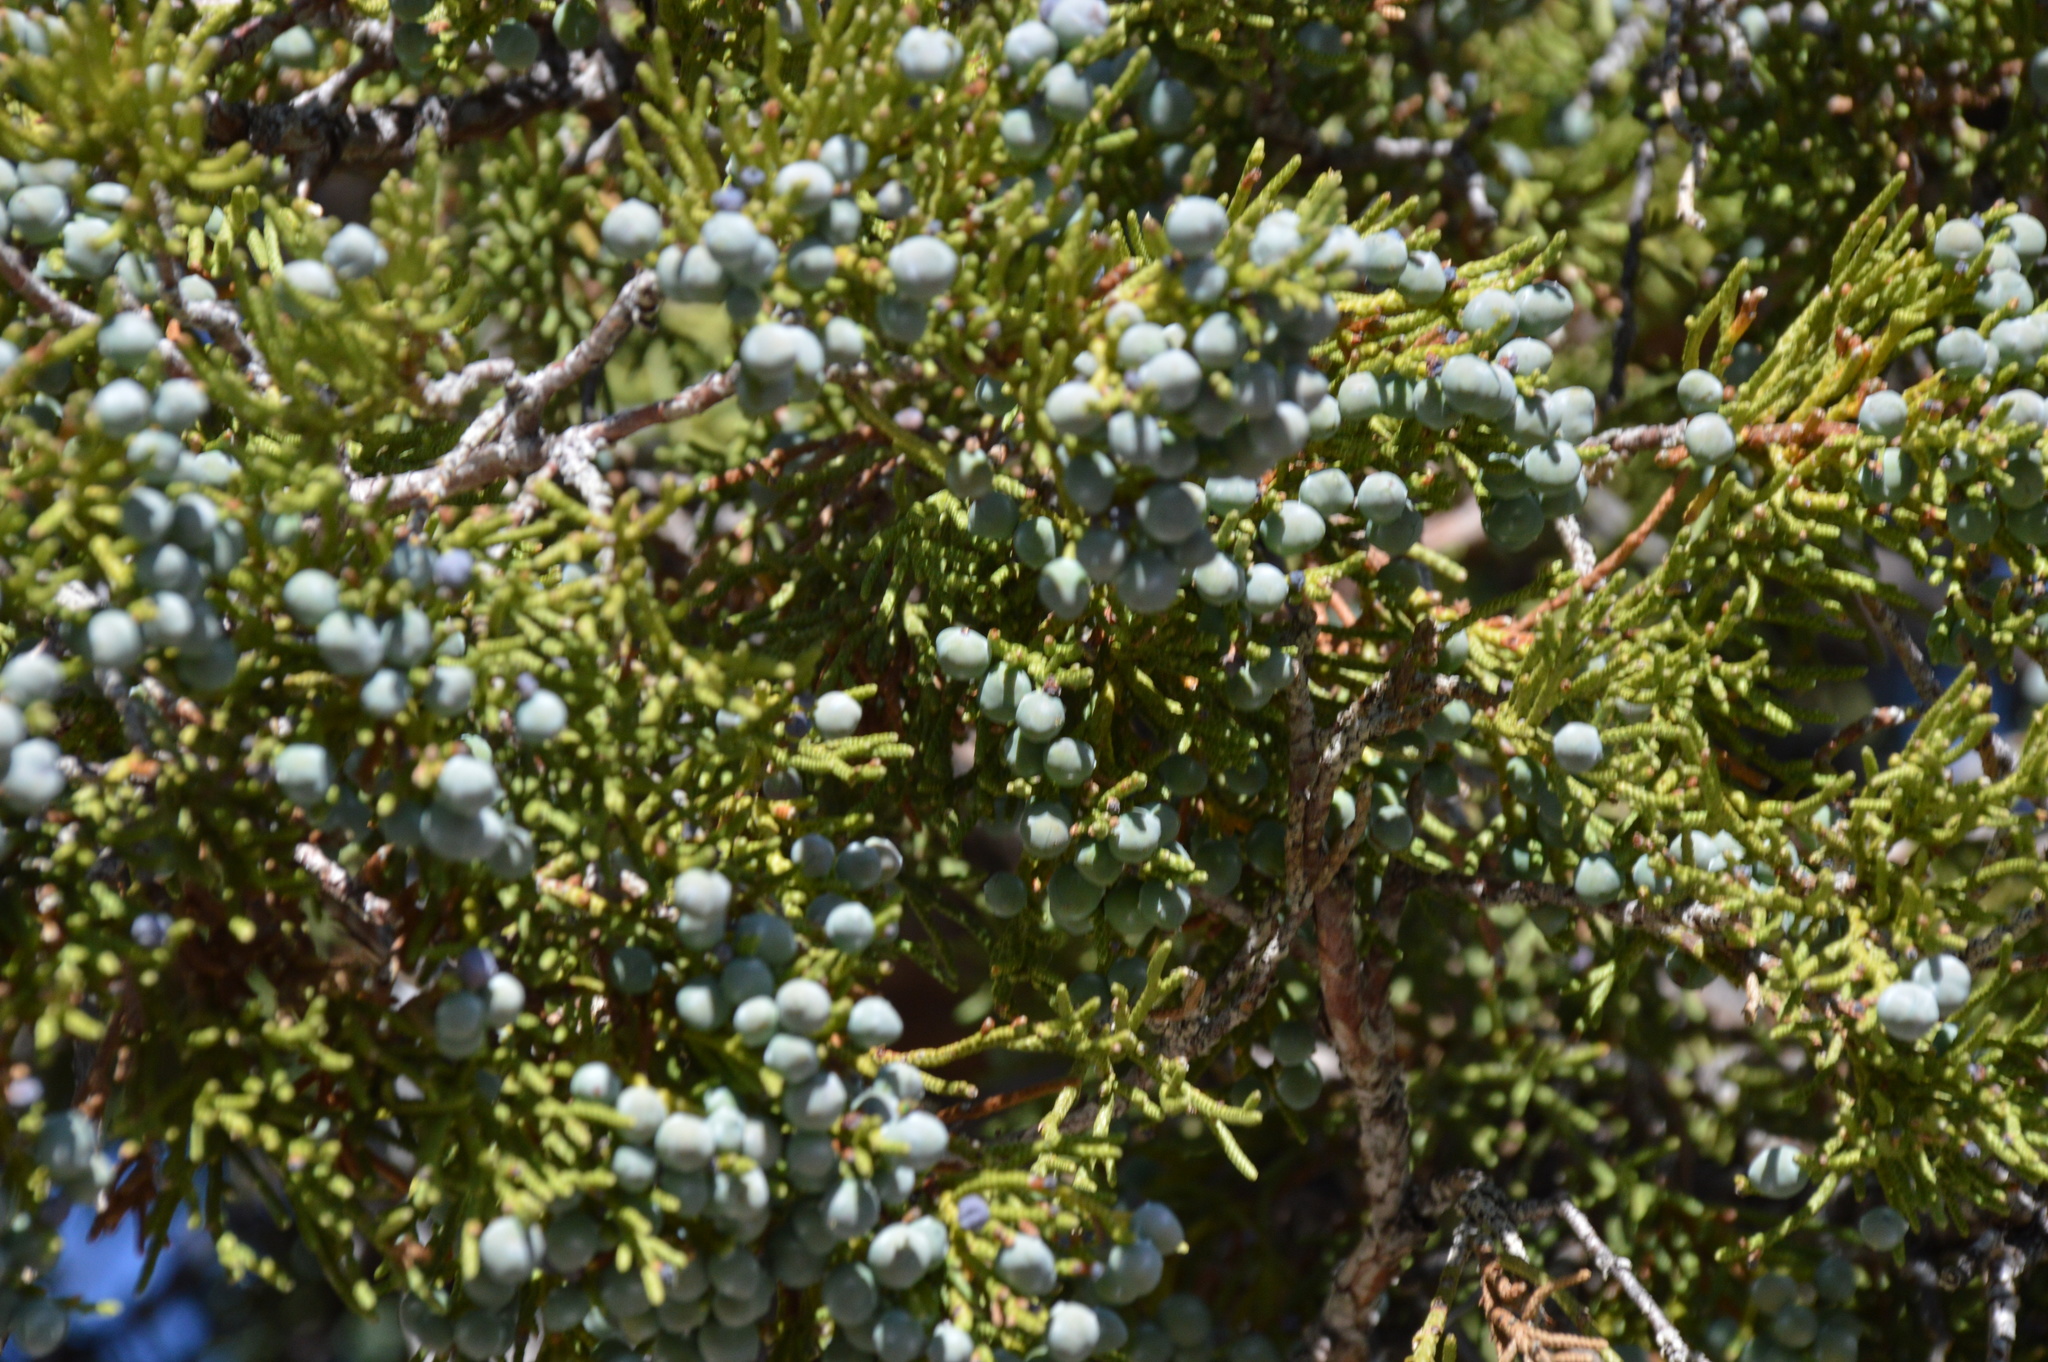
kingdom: Plantae
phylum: Tracheophyta
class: Pinopsida
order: Pinales
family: Cupressaceae
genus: Juniperus
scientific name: Juniperus occidentalis
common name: Western juniper
